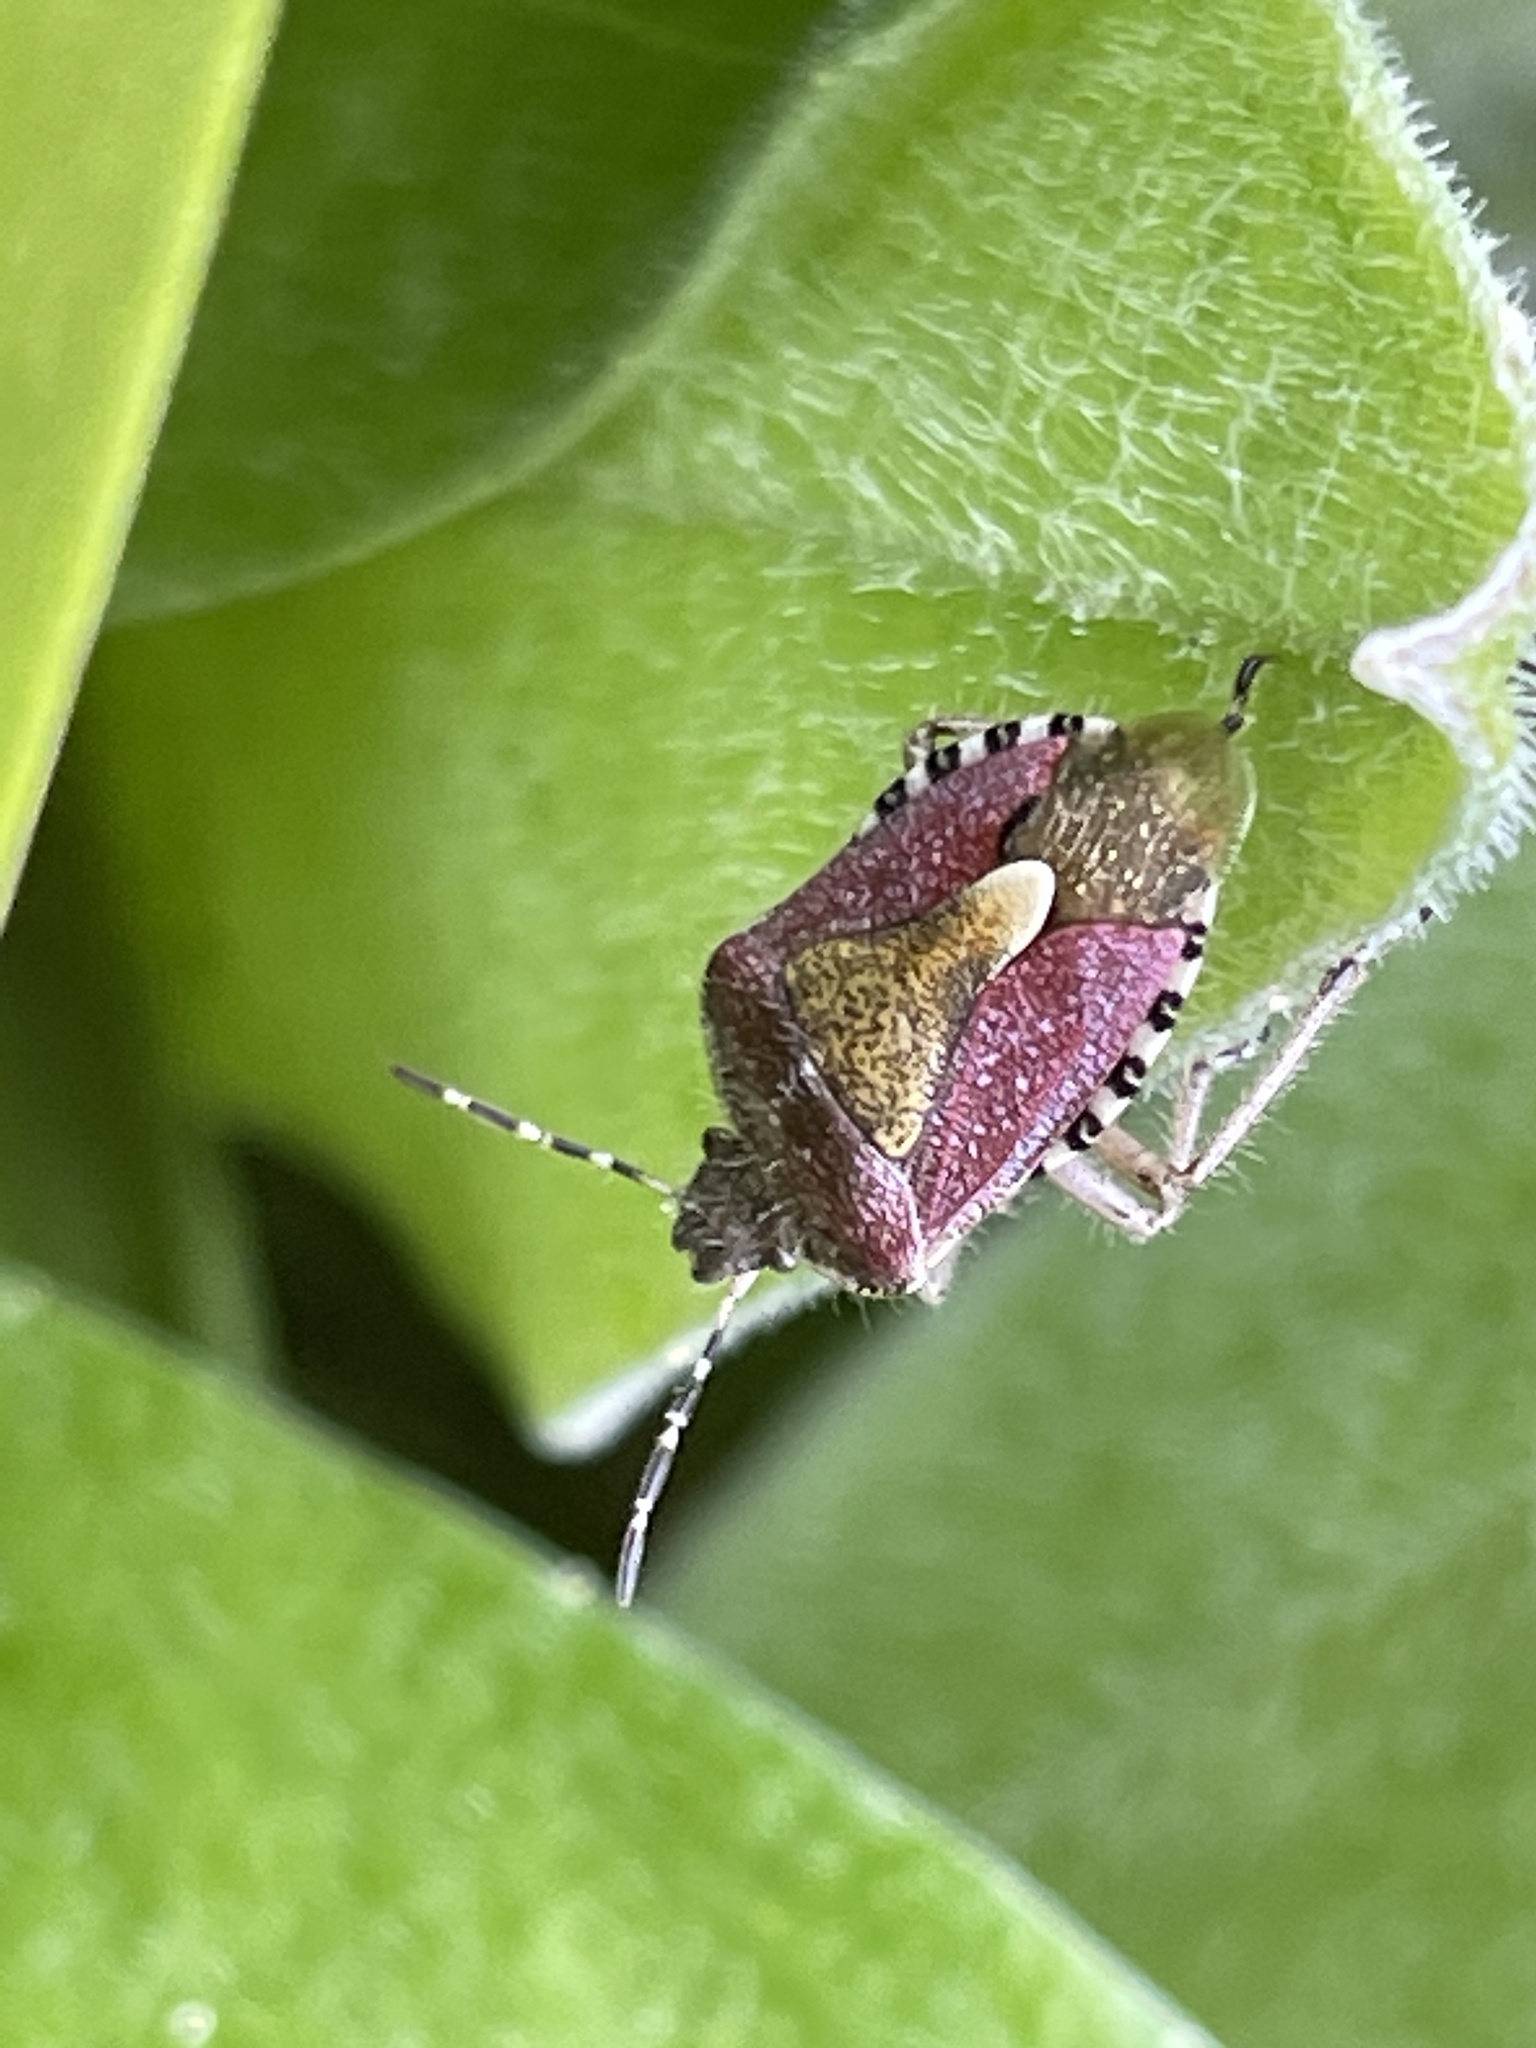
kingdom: Animalia
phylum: Arthropoda
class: Insecta
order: Hemiptera
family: Pentatomidae
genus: Dolycoris
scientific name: Dolycoris baccarum
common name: Sloe bug
